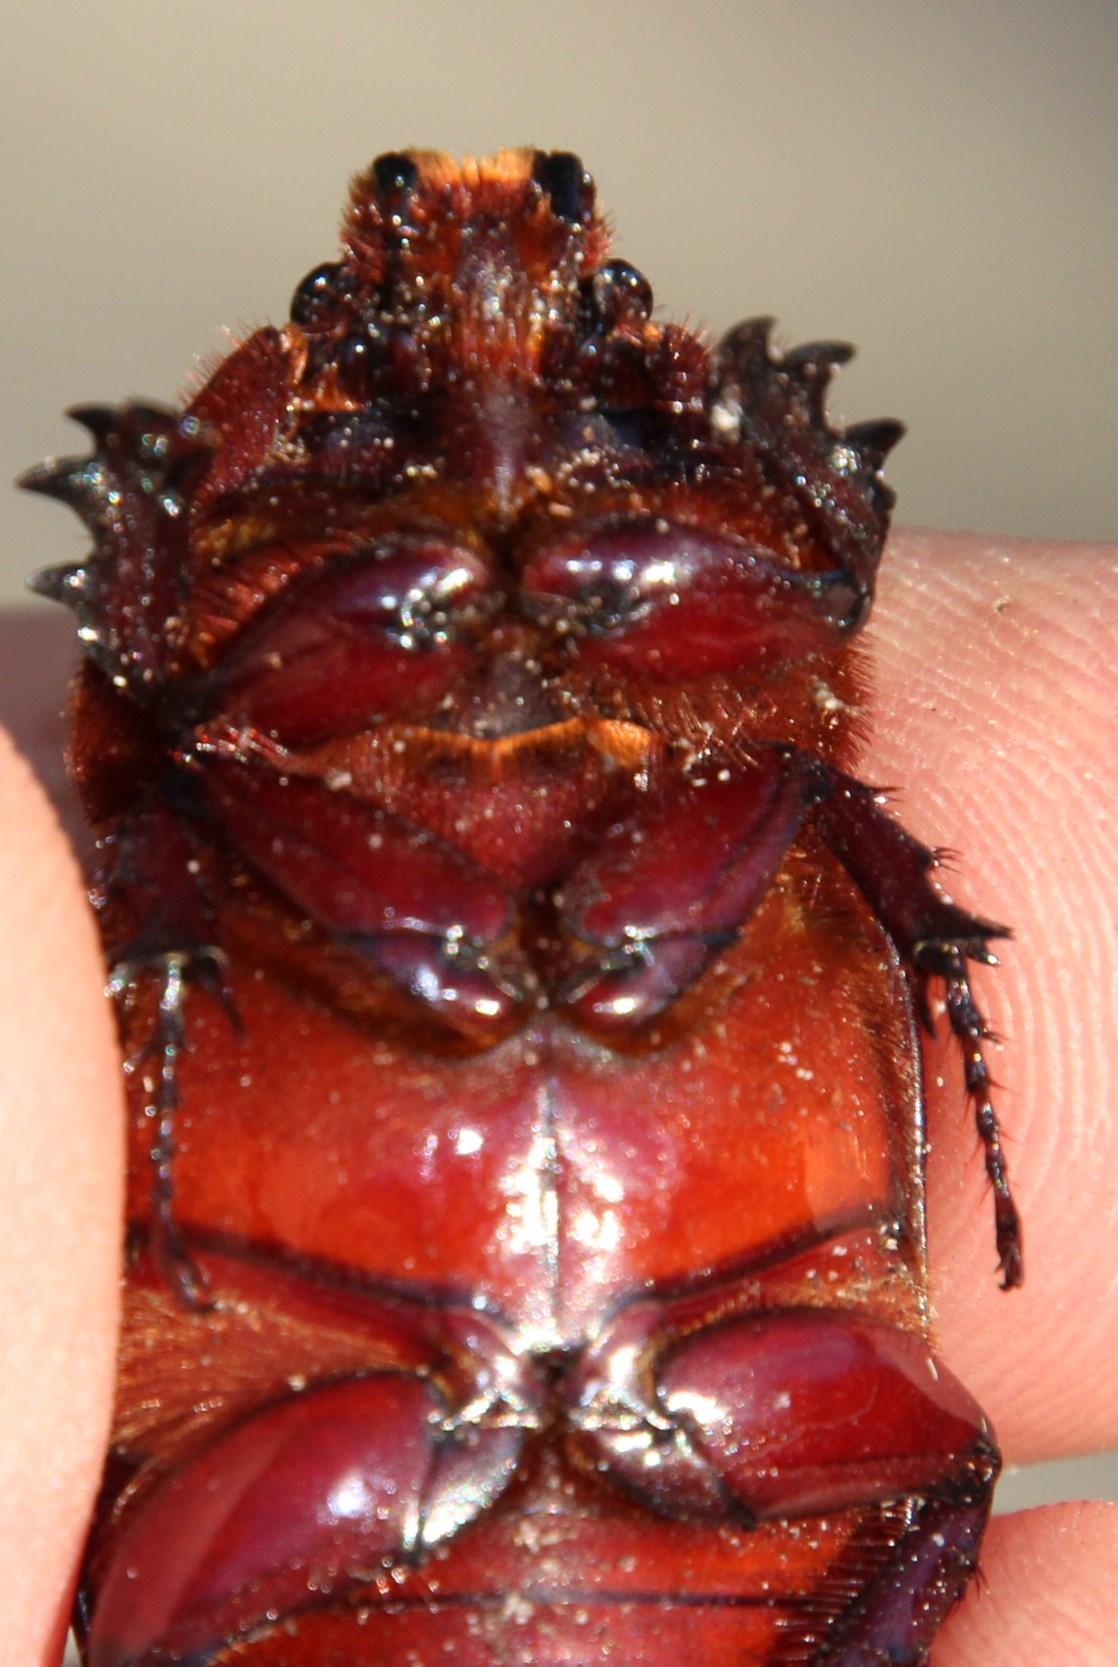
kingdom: Animalia
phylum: Arthropoda
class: Insecta
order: Coleoptera
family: Scarabaeidae
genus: Oryctes
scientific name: Oryctes boas
